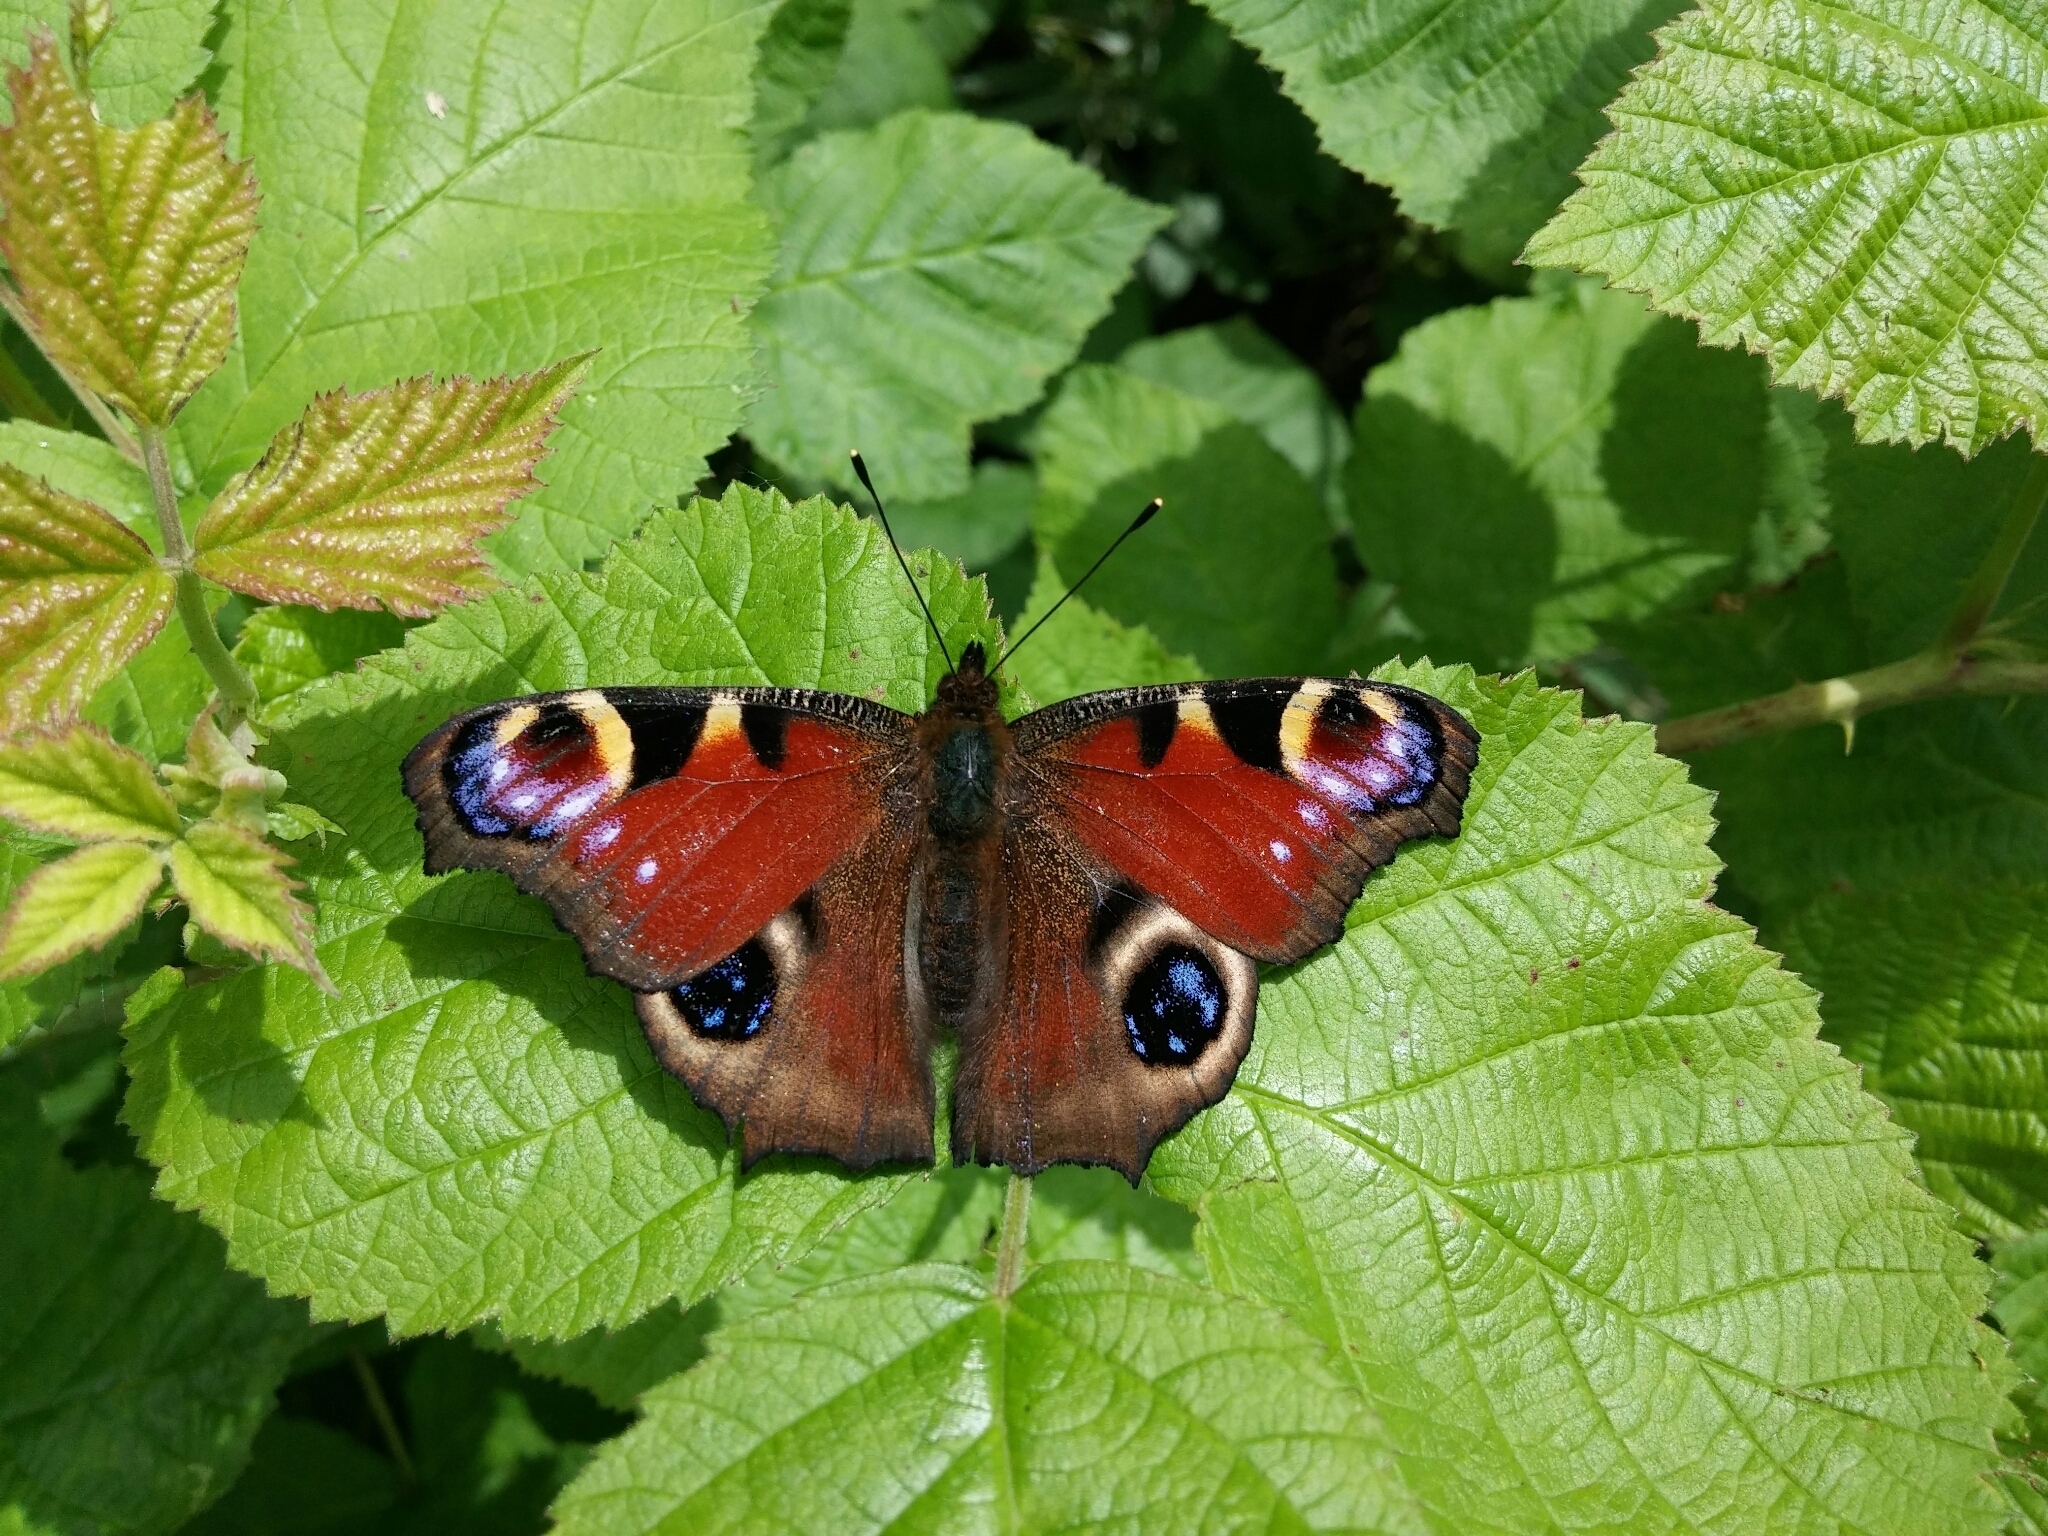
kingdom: Animalia
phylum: Arthropoda
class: Insecta
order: Lepidoptera
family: Nymphalidae
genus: Aglais
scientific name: Aglais io
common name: Peacock
